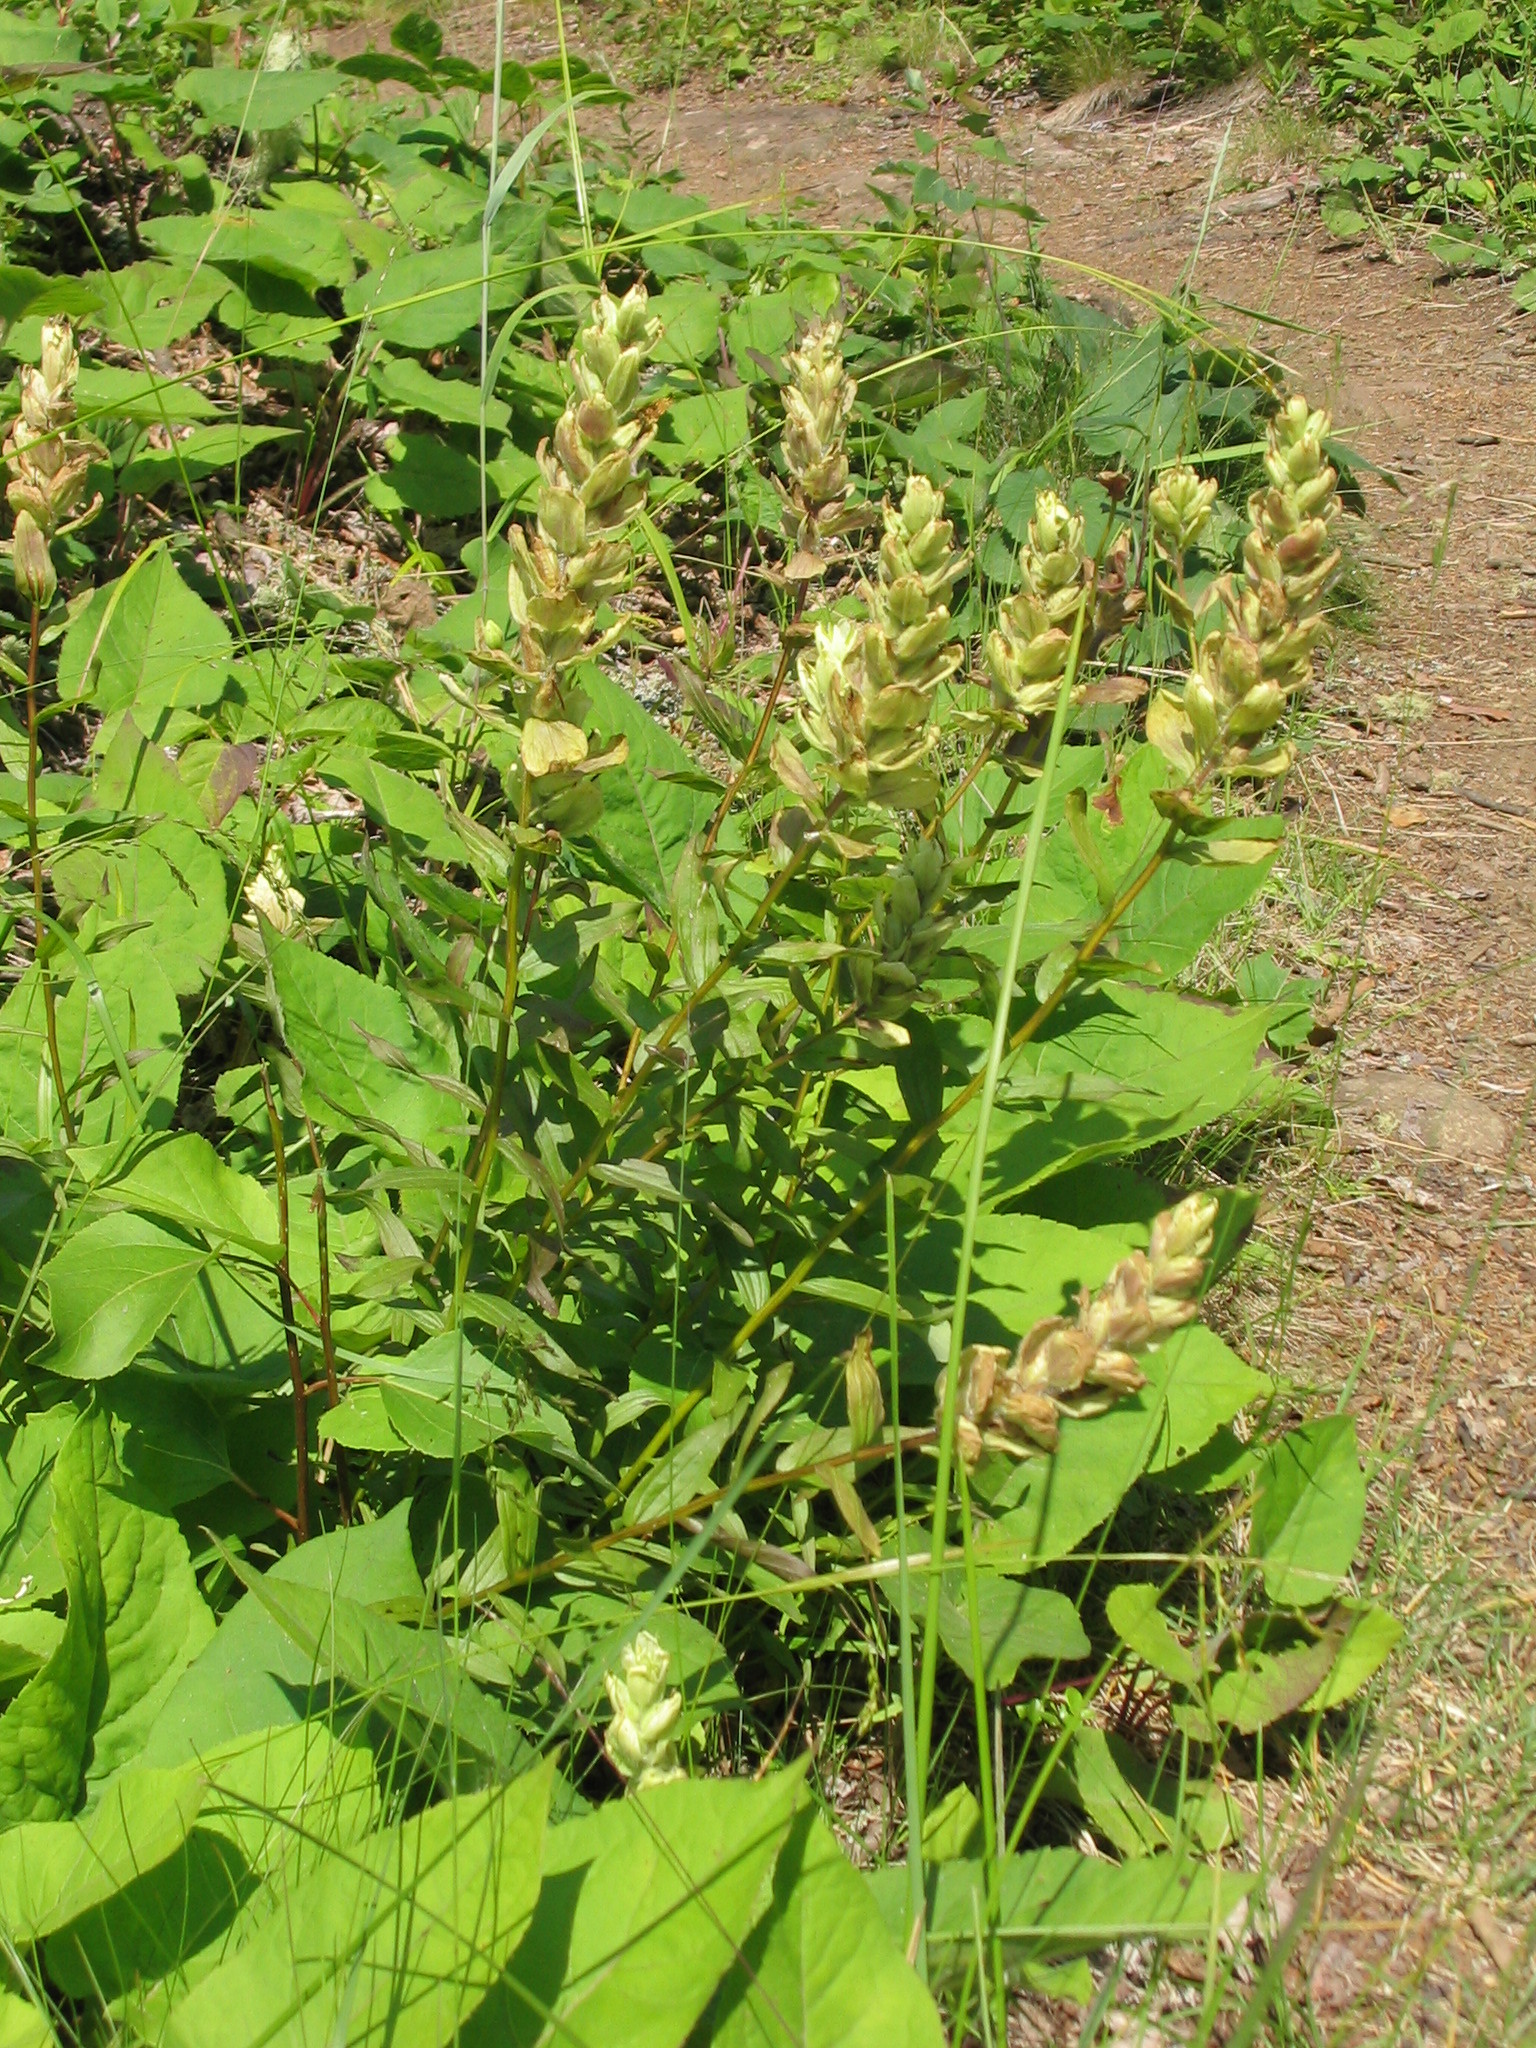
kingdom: Plantae
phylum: Tracheophyta
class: Magnoliopsida
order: Lamiales
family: Orobanchaceae
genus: Castilleja
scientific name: Castilleja septentrionalis
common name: Northeastern paintbrush
